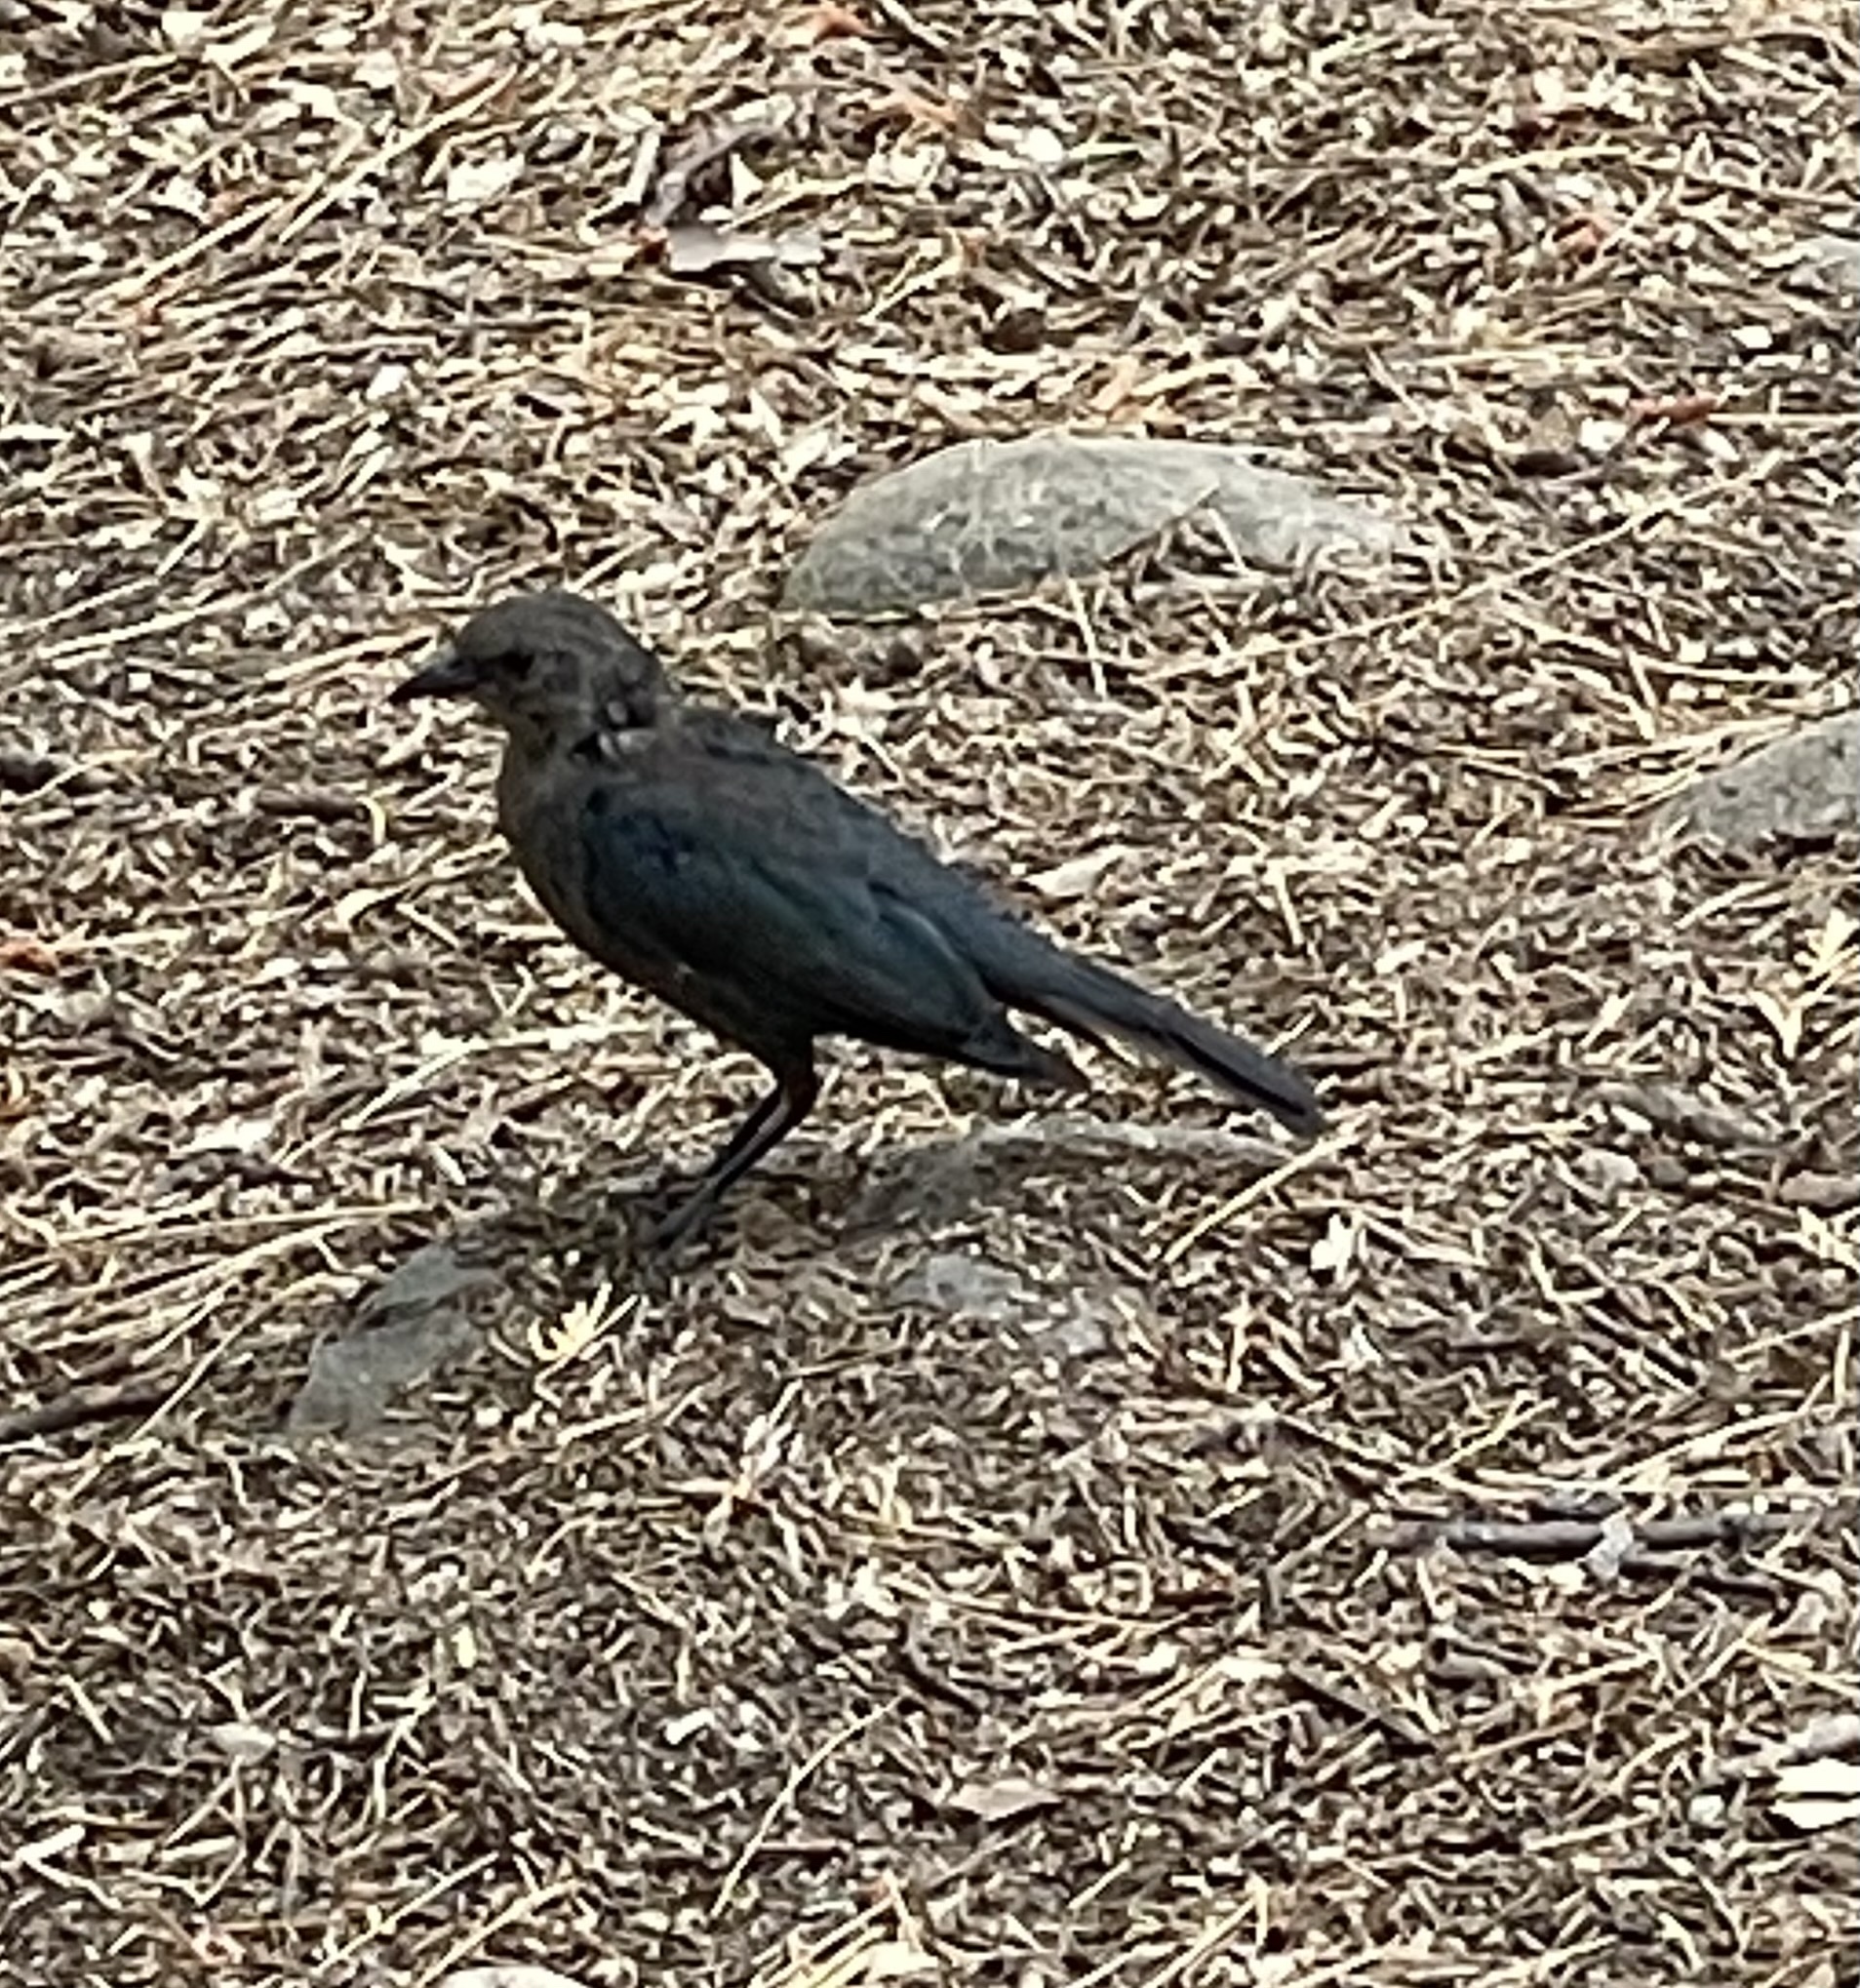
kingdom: Animalia
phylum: Chordata
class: Aves
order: Passeriformes
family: Icteridae
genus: Euphagus
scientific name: Euphagus cyanocephalus
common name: Brewer's blackbird
